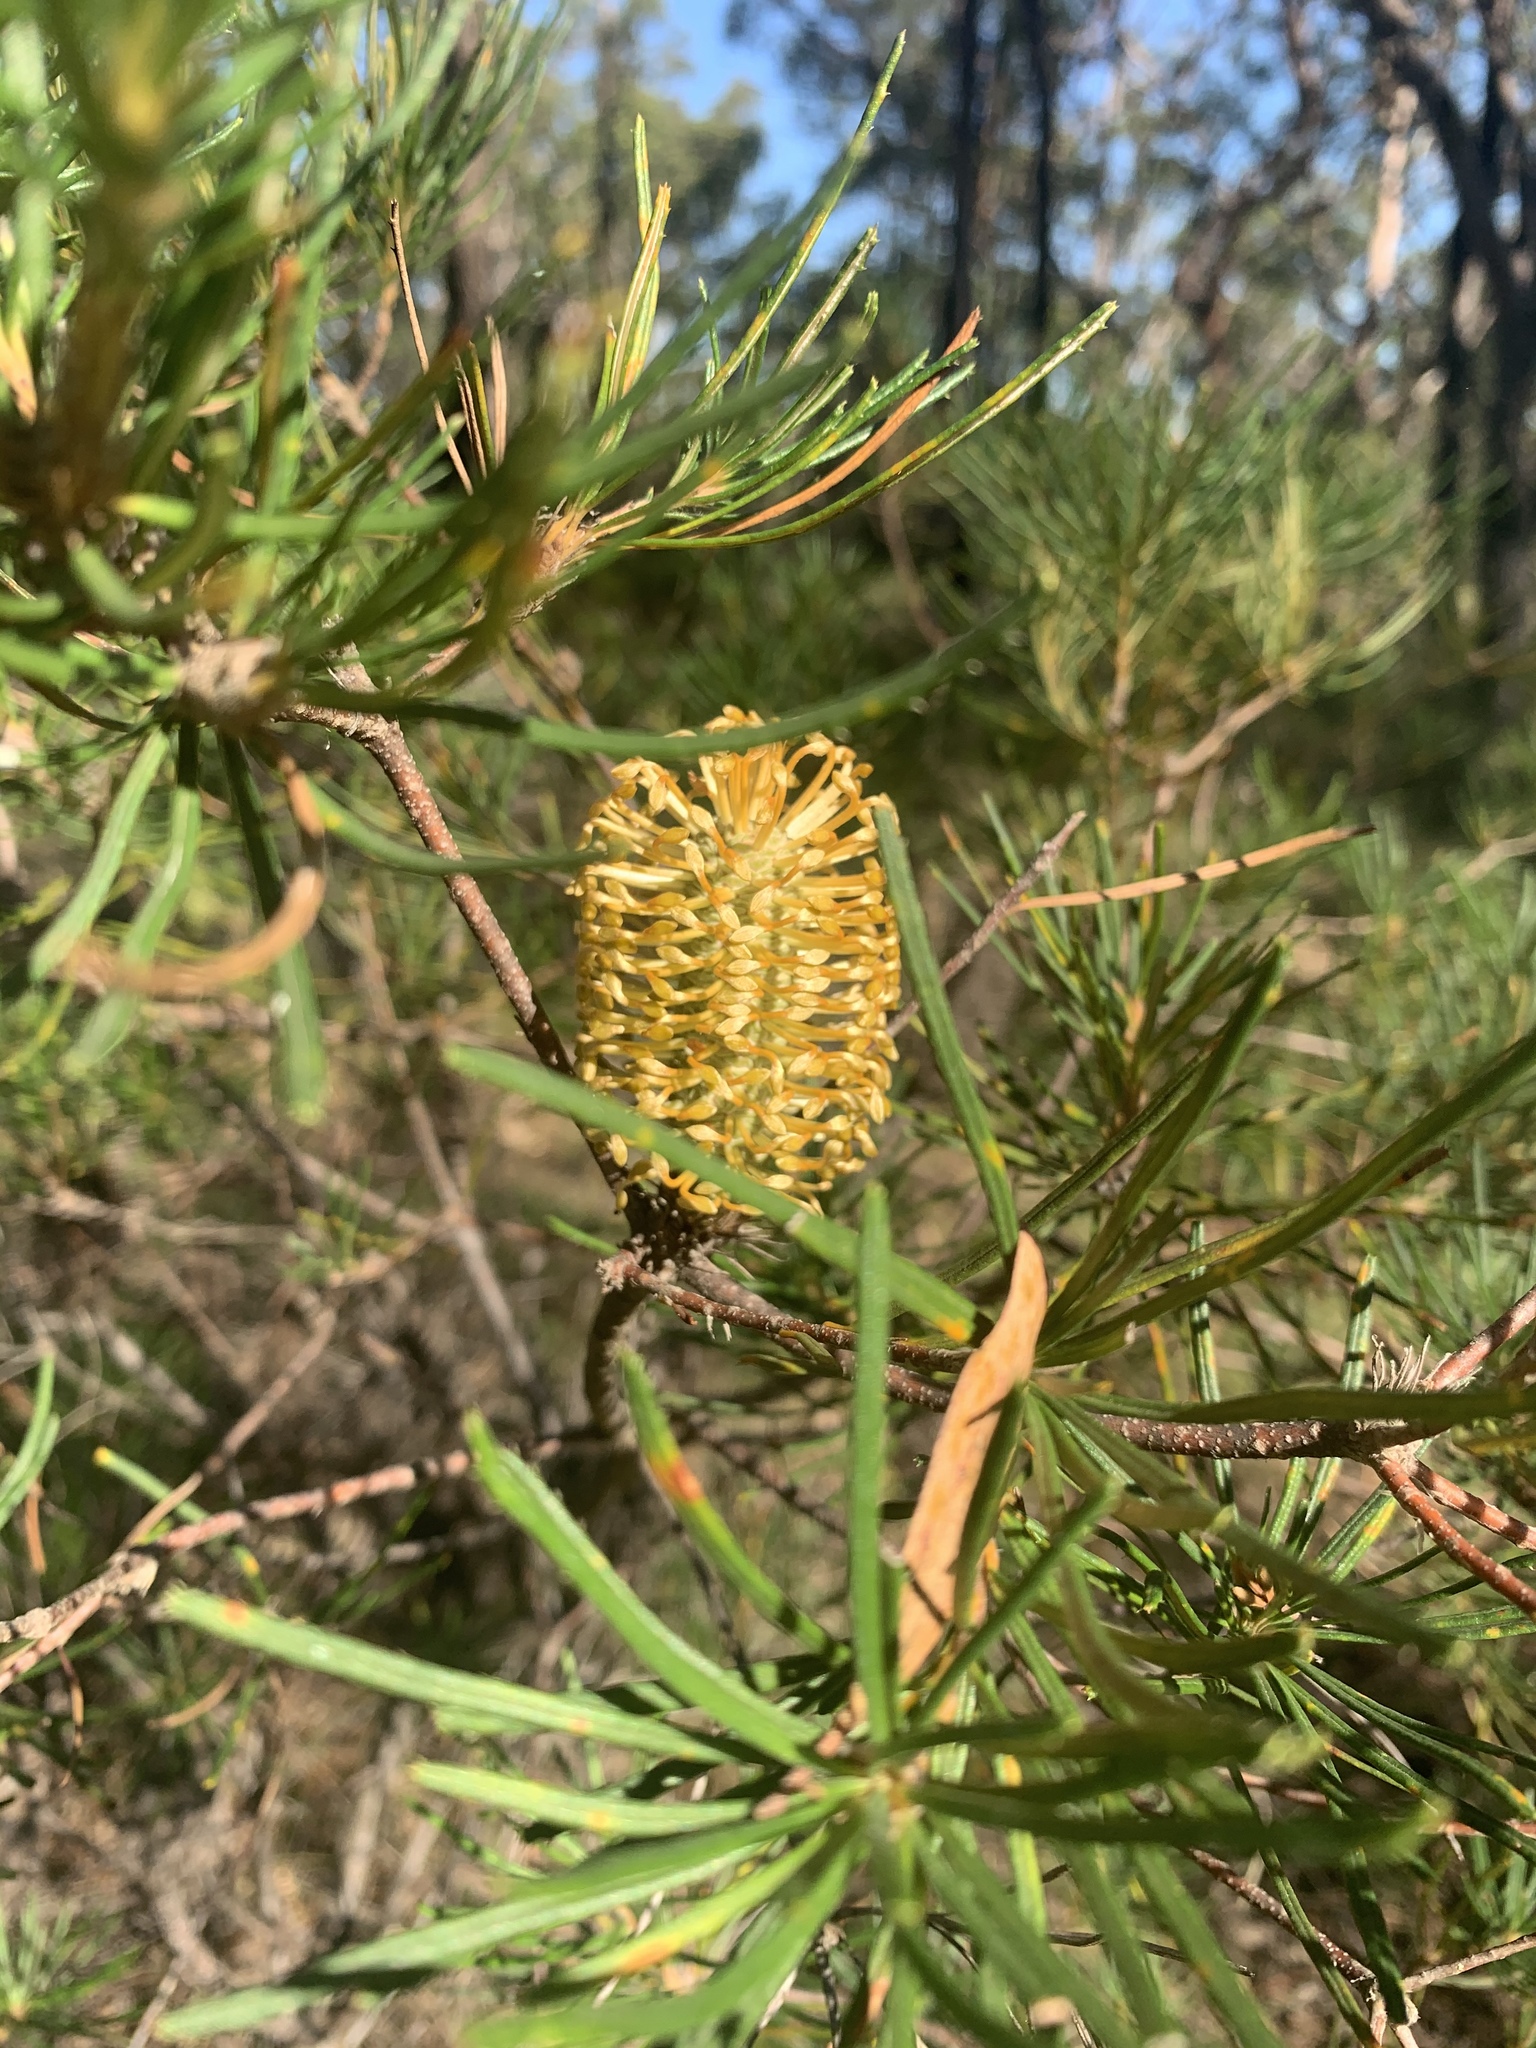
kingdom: Plantae
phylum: Tracheophyta
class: Magnoliopsida
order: Proteales
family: Proteaceae
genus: Banksia
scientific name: Banksia spinulosa
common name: Hairpin banksia
